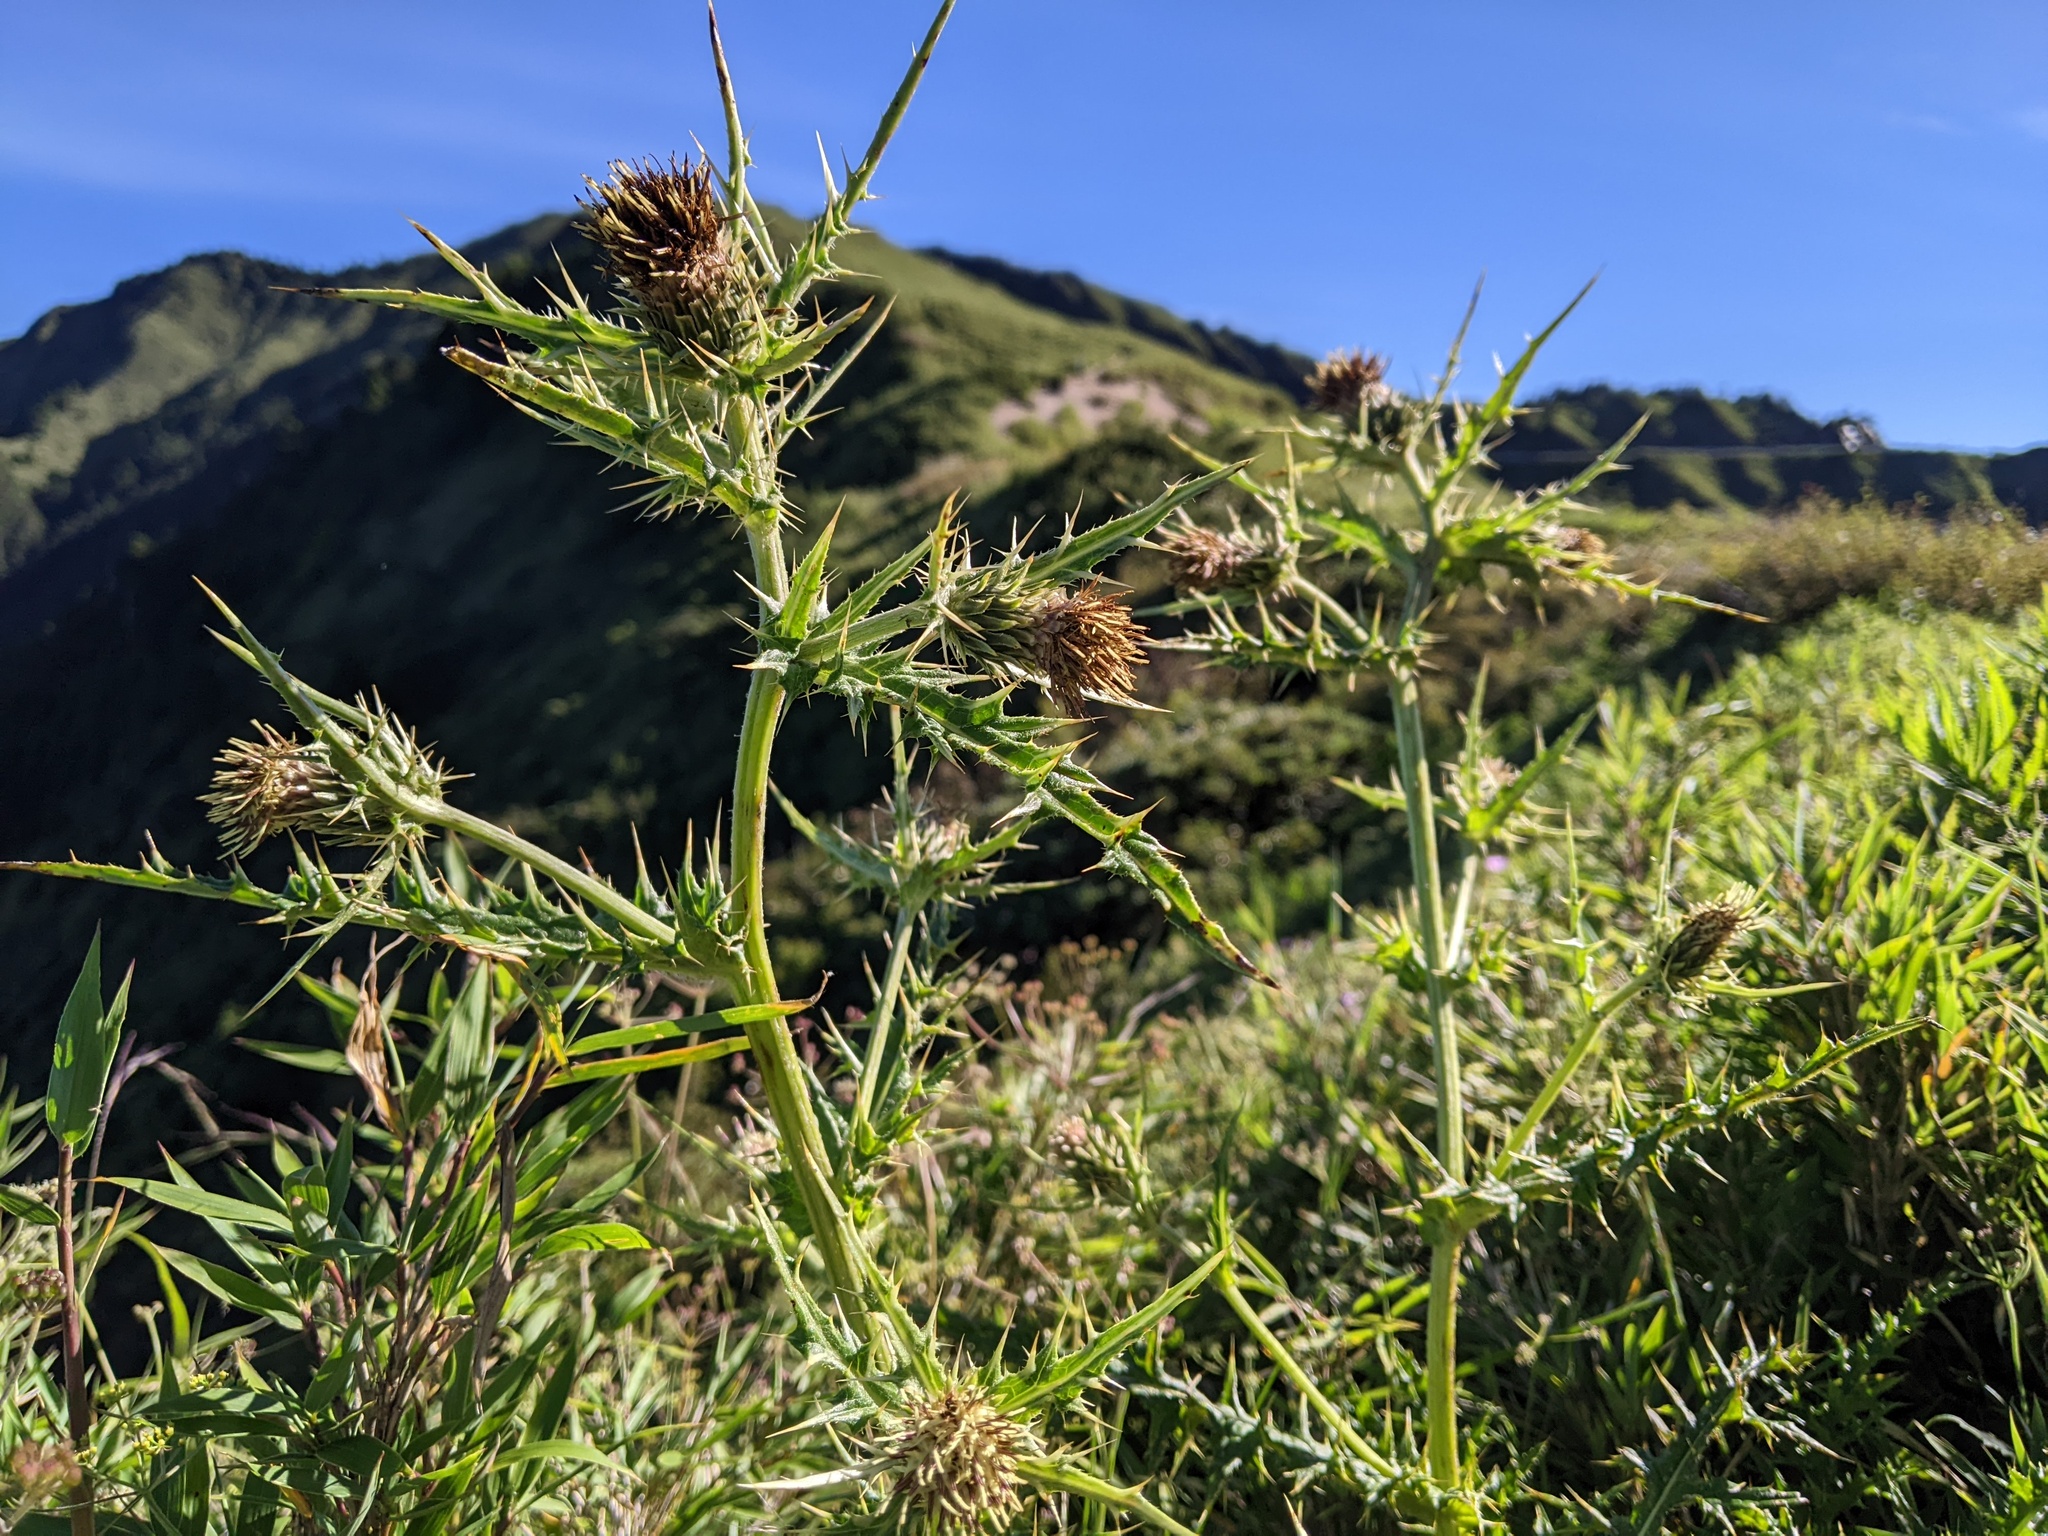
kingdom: Plantae
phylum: Tracheophyta
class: Magnoliopsida
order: Asterales
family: Asteraceae
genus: Cirsium
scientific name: Cirsium arisanense
